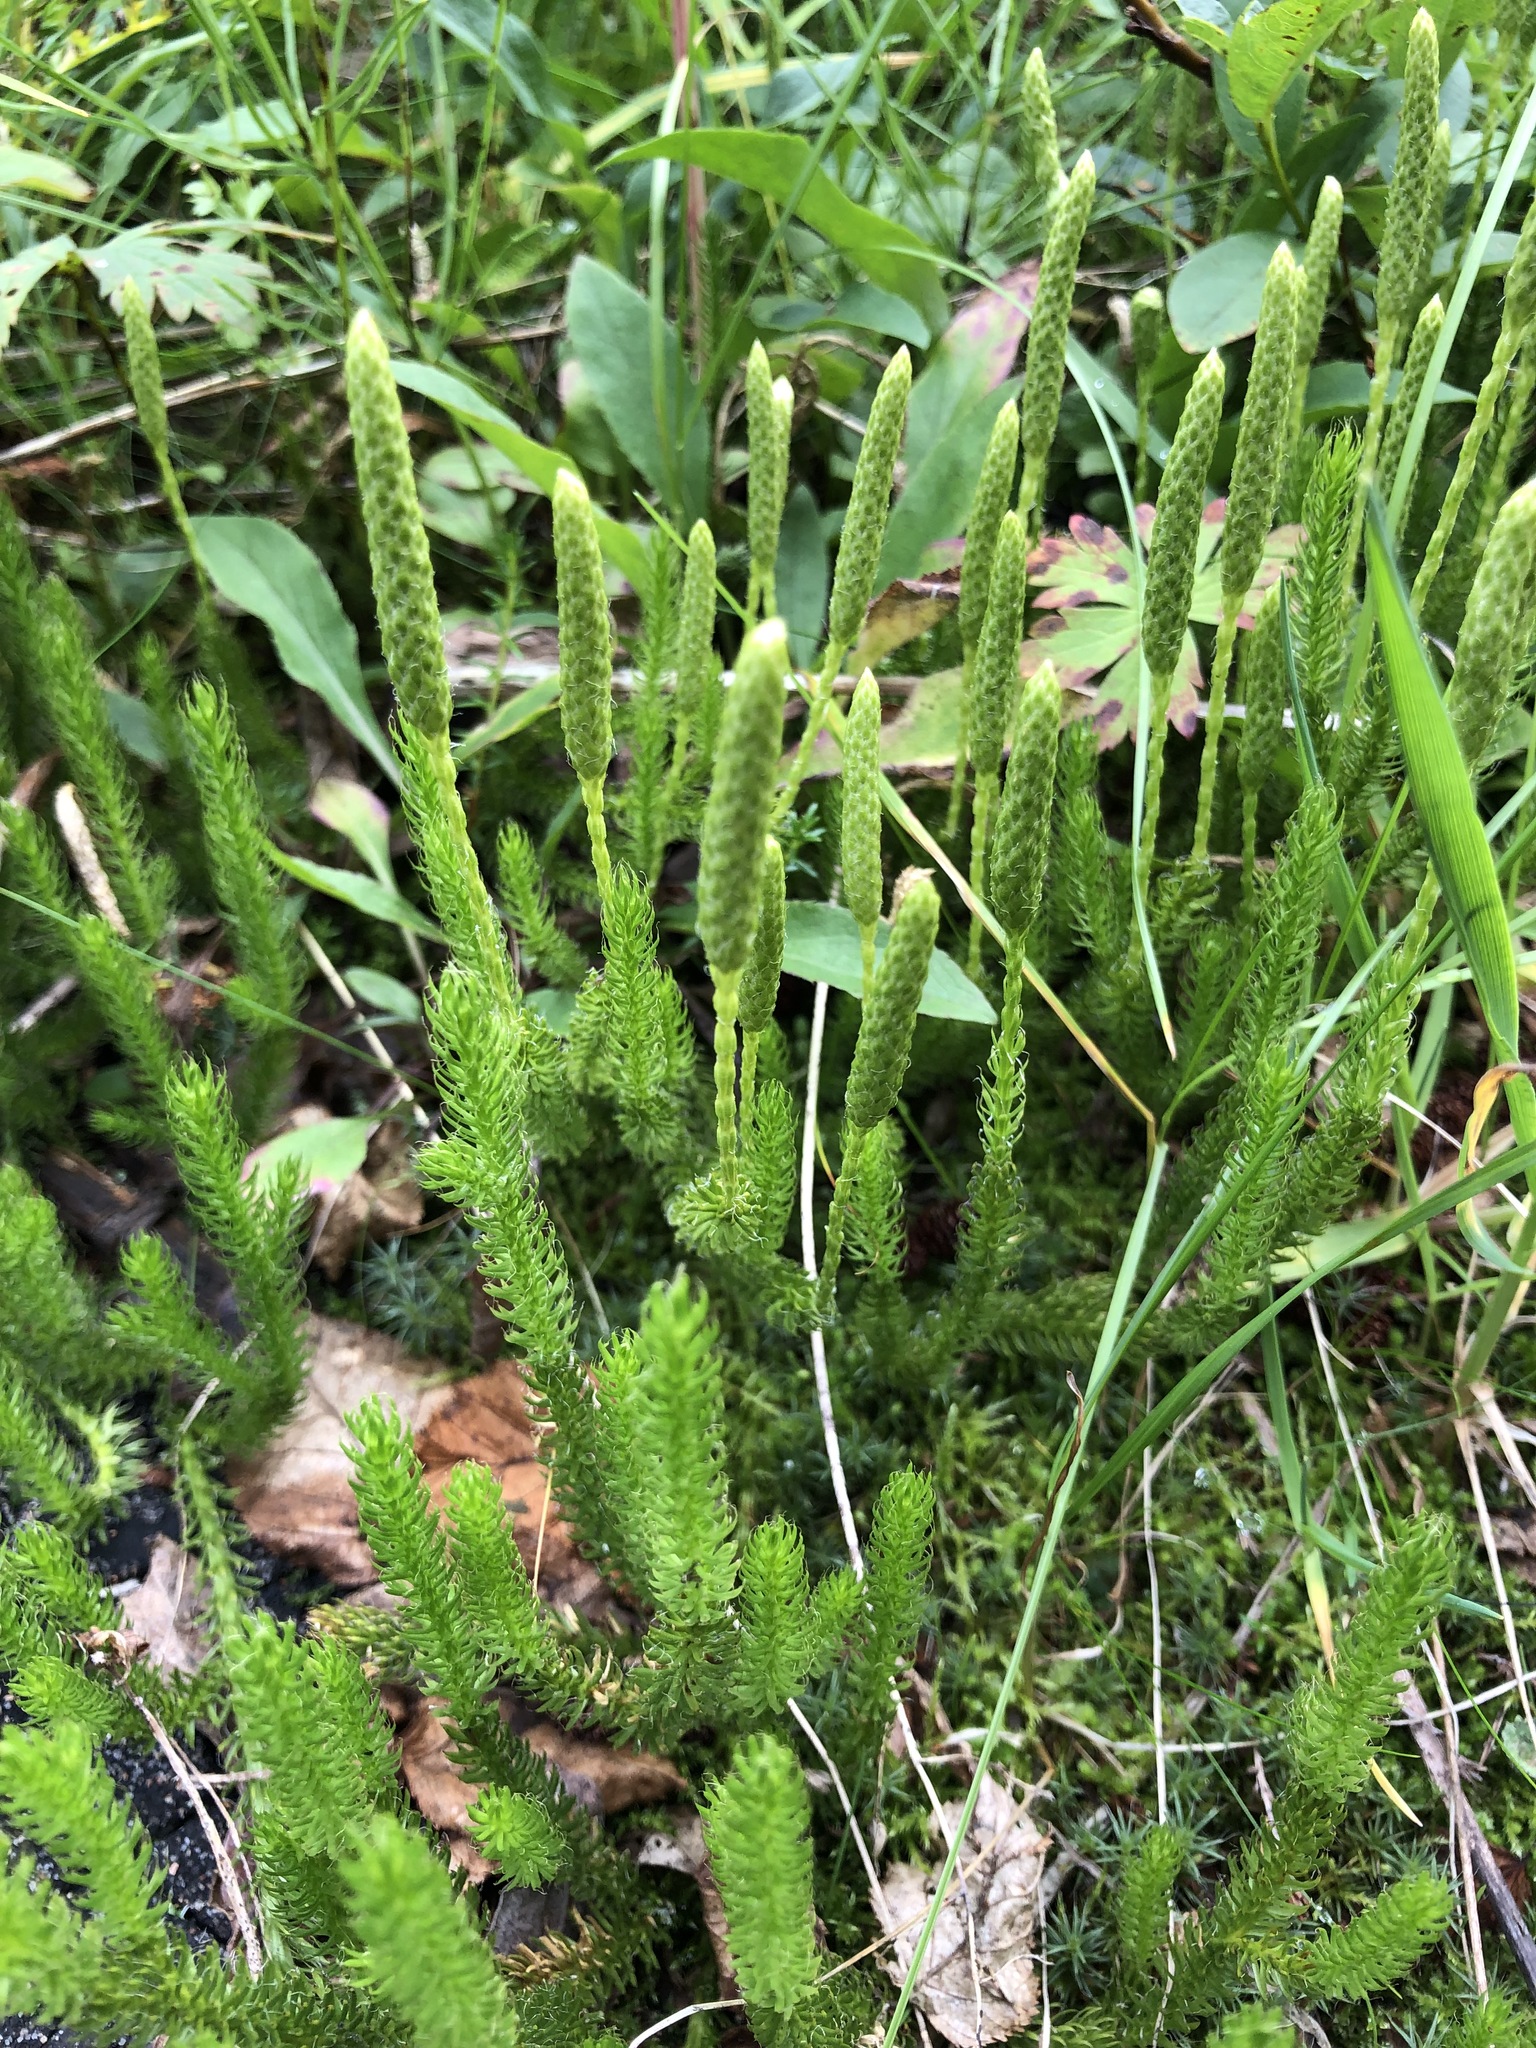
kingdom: Plantae
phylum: Tracheophyta
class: Lycopodiopsida
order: Lycopodiales
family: Lycopodiaceae
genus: Lycopodium
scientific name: Lycopodium lagopus
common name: One-cone clubmoss
